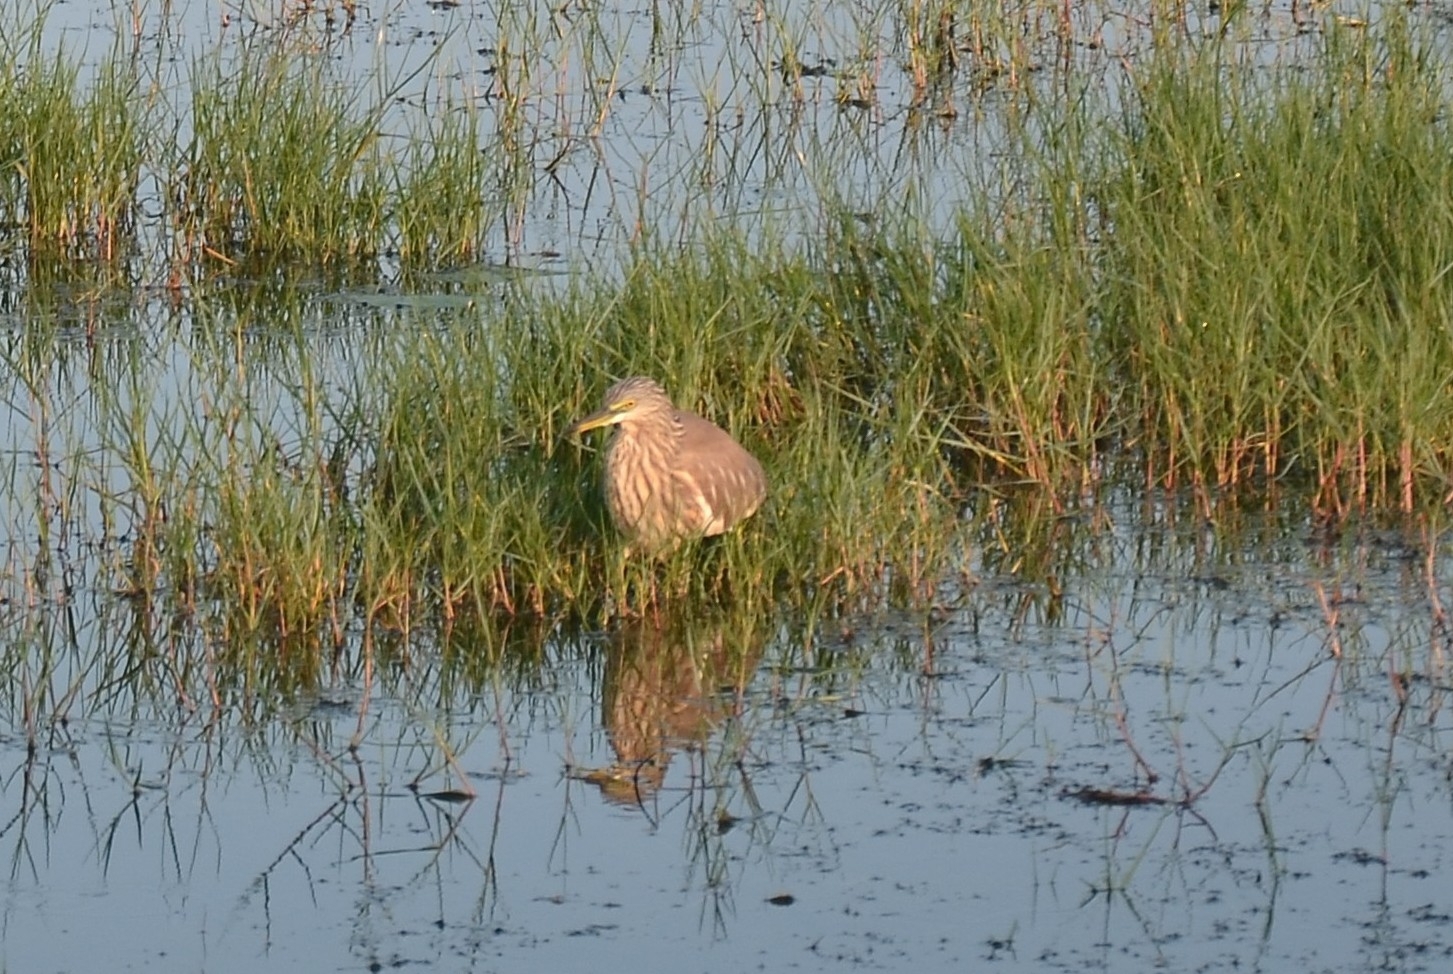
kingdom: Animalia
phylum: Chordata
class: Aves
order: Pelecaniformes
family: Ardeidae
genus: Ardeola
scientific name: Ardeola grayii
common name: Indian pond heron
